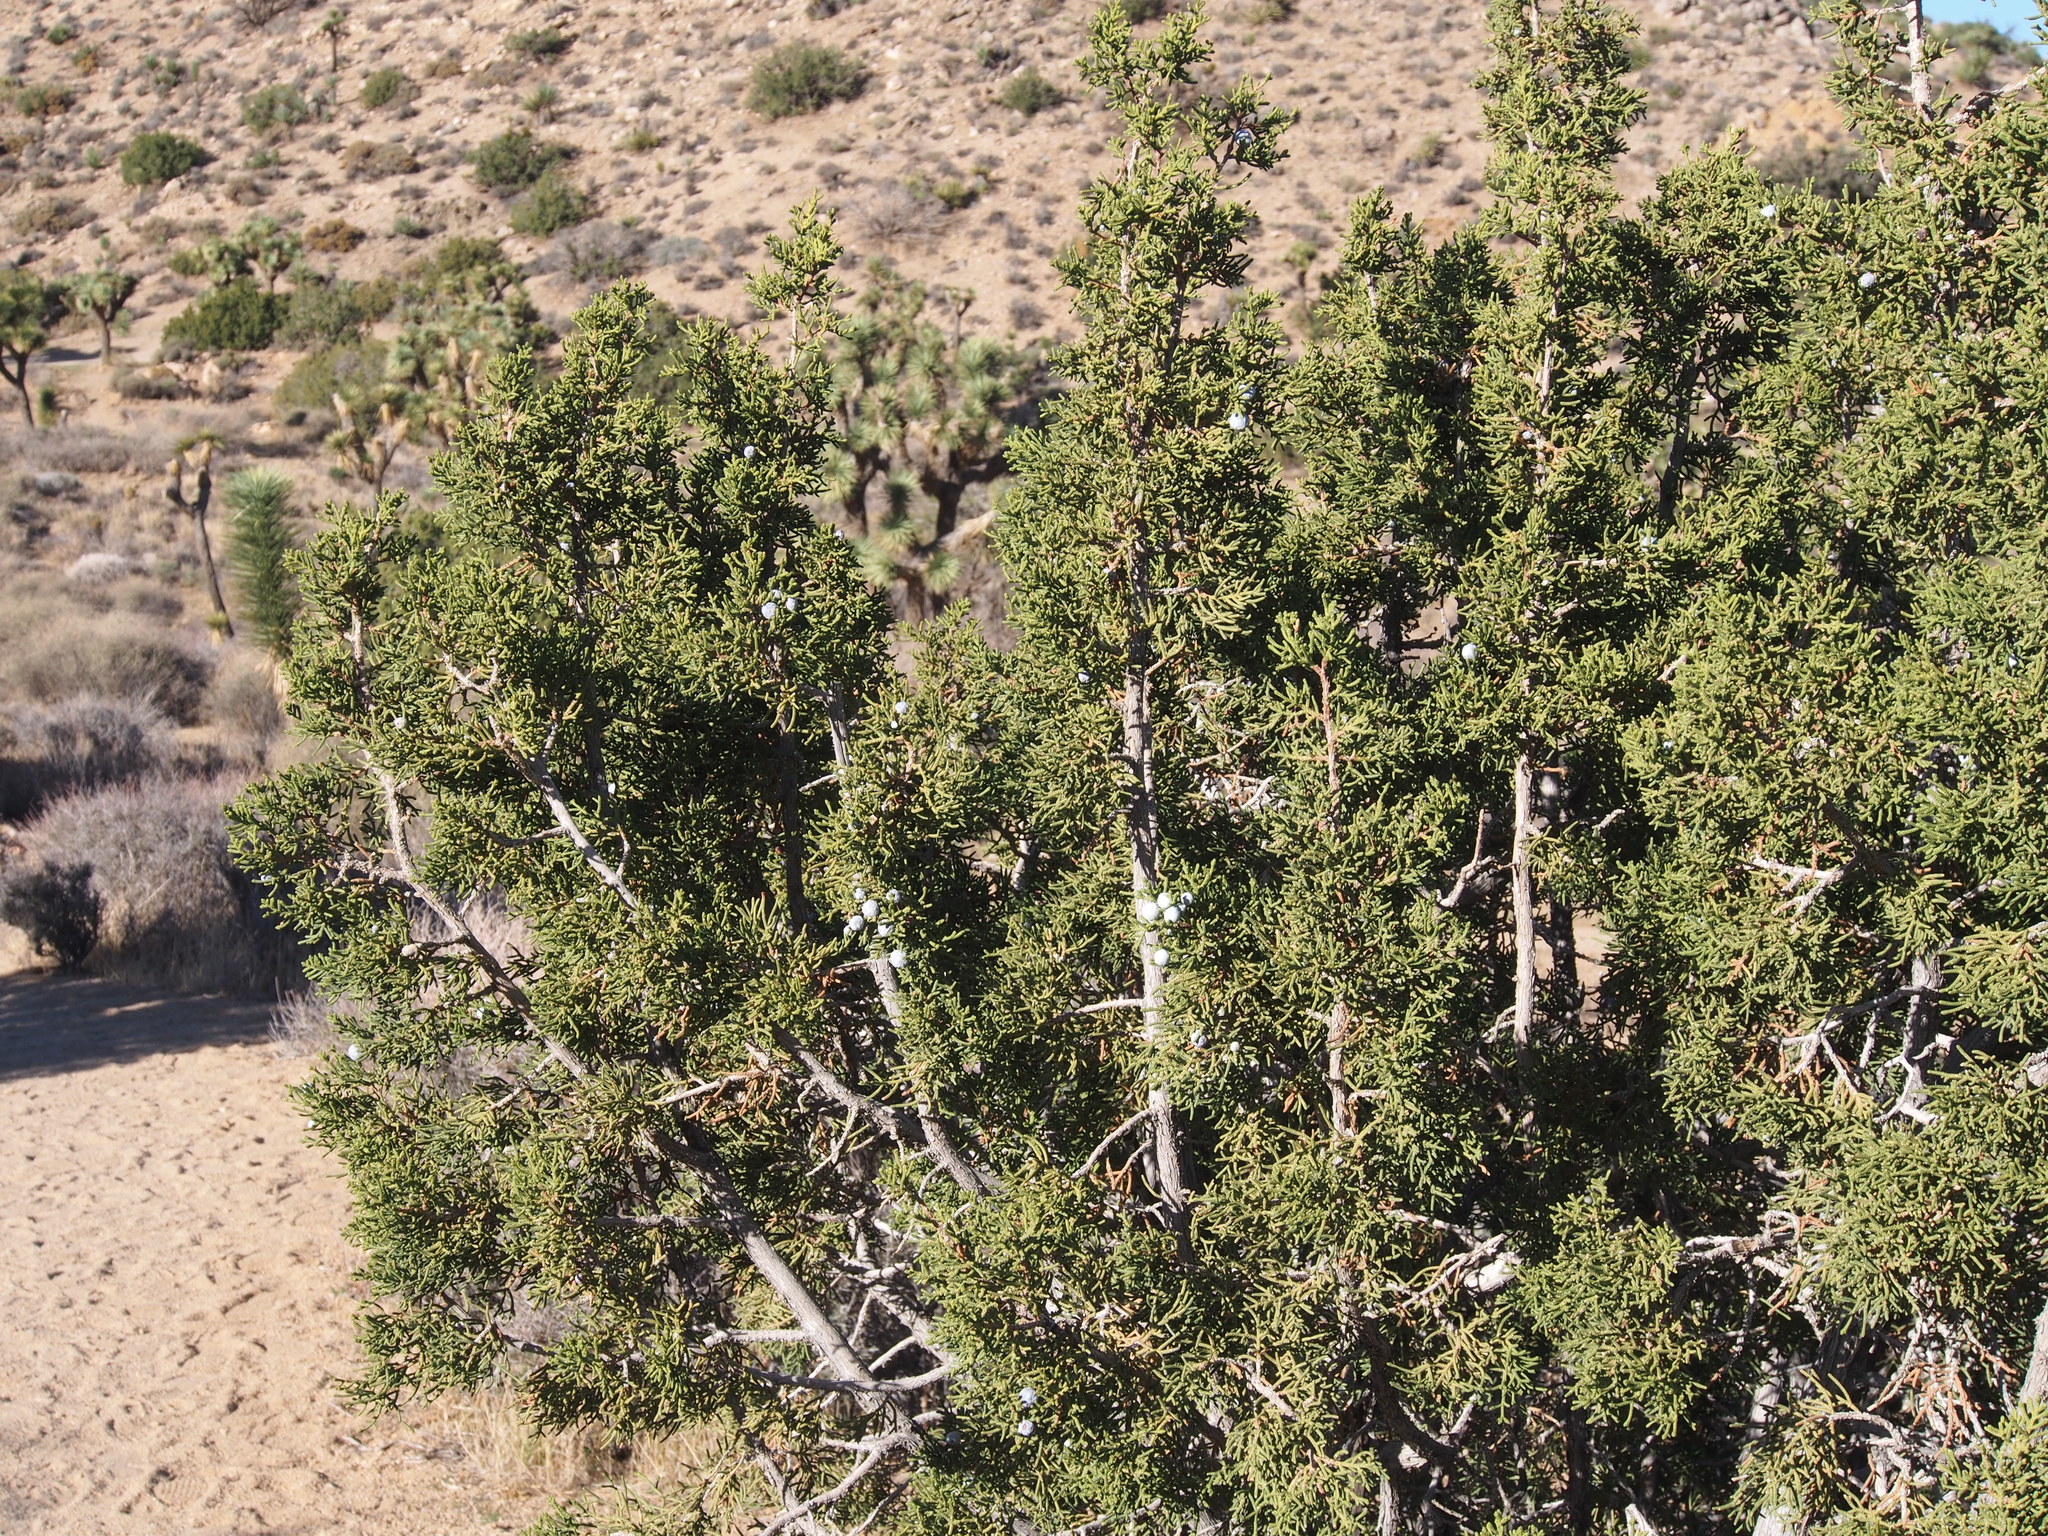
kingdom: Plantae
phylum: Tracheophyta
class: Pinopsida
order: Pinales
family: Cupressaceae
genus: Juniperus
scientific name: Juniperus californica
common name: California juniper
